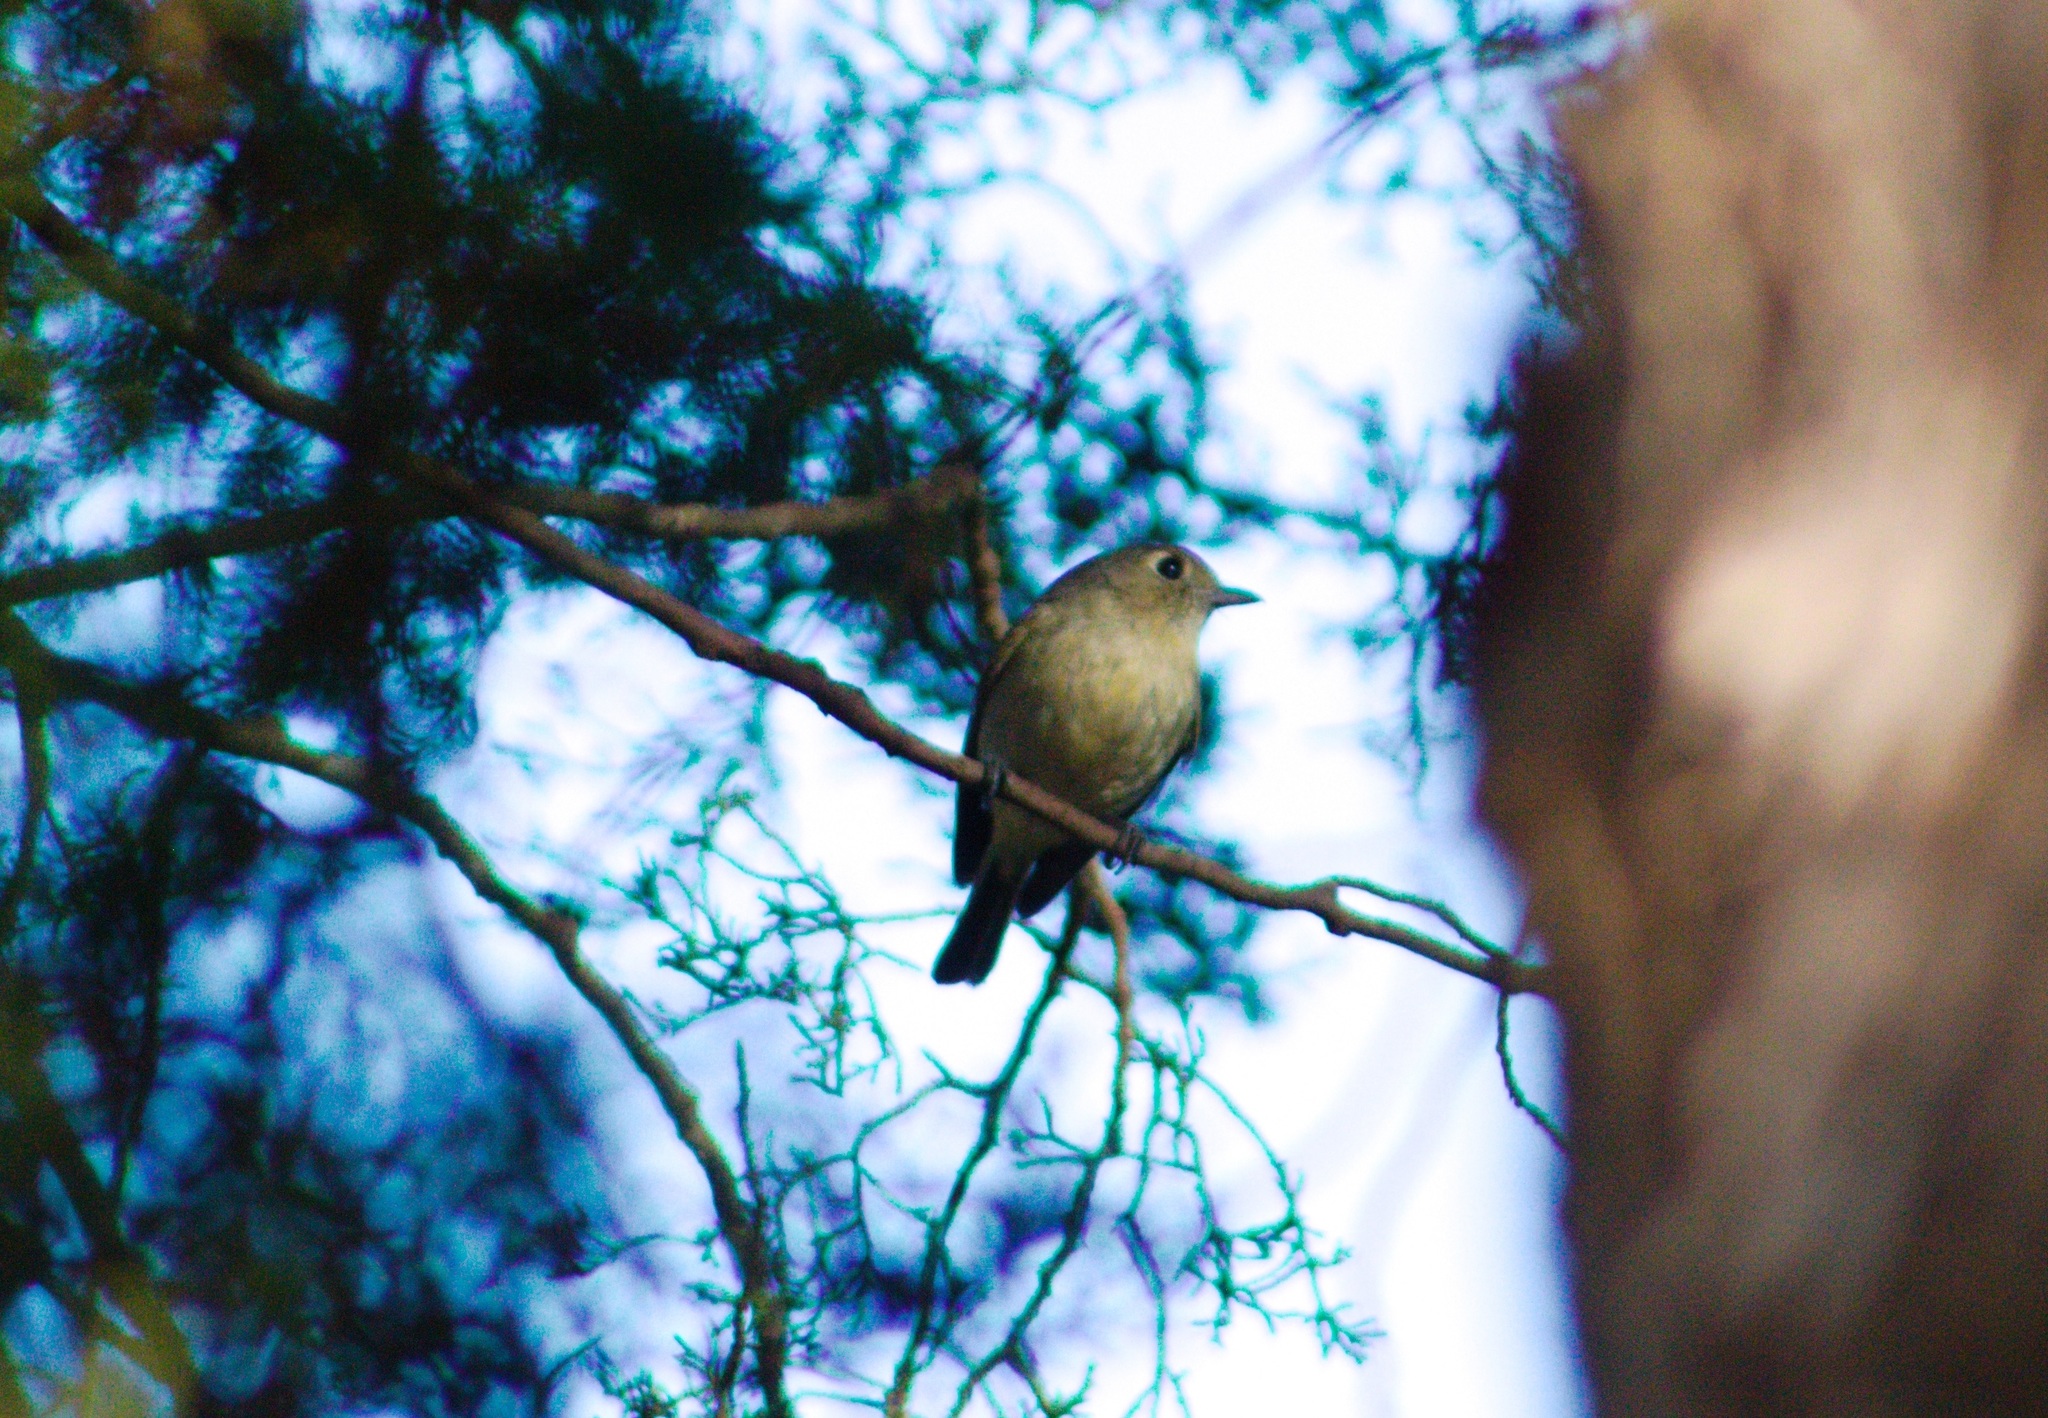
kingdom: Animalia
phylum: Chordata
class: Aves
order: Passeriformes
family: Vireonidae
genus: Vireo
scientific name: Vireo huttoni
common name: Hutton's vireo
